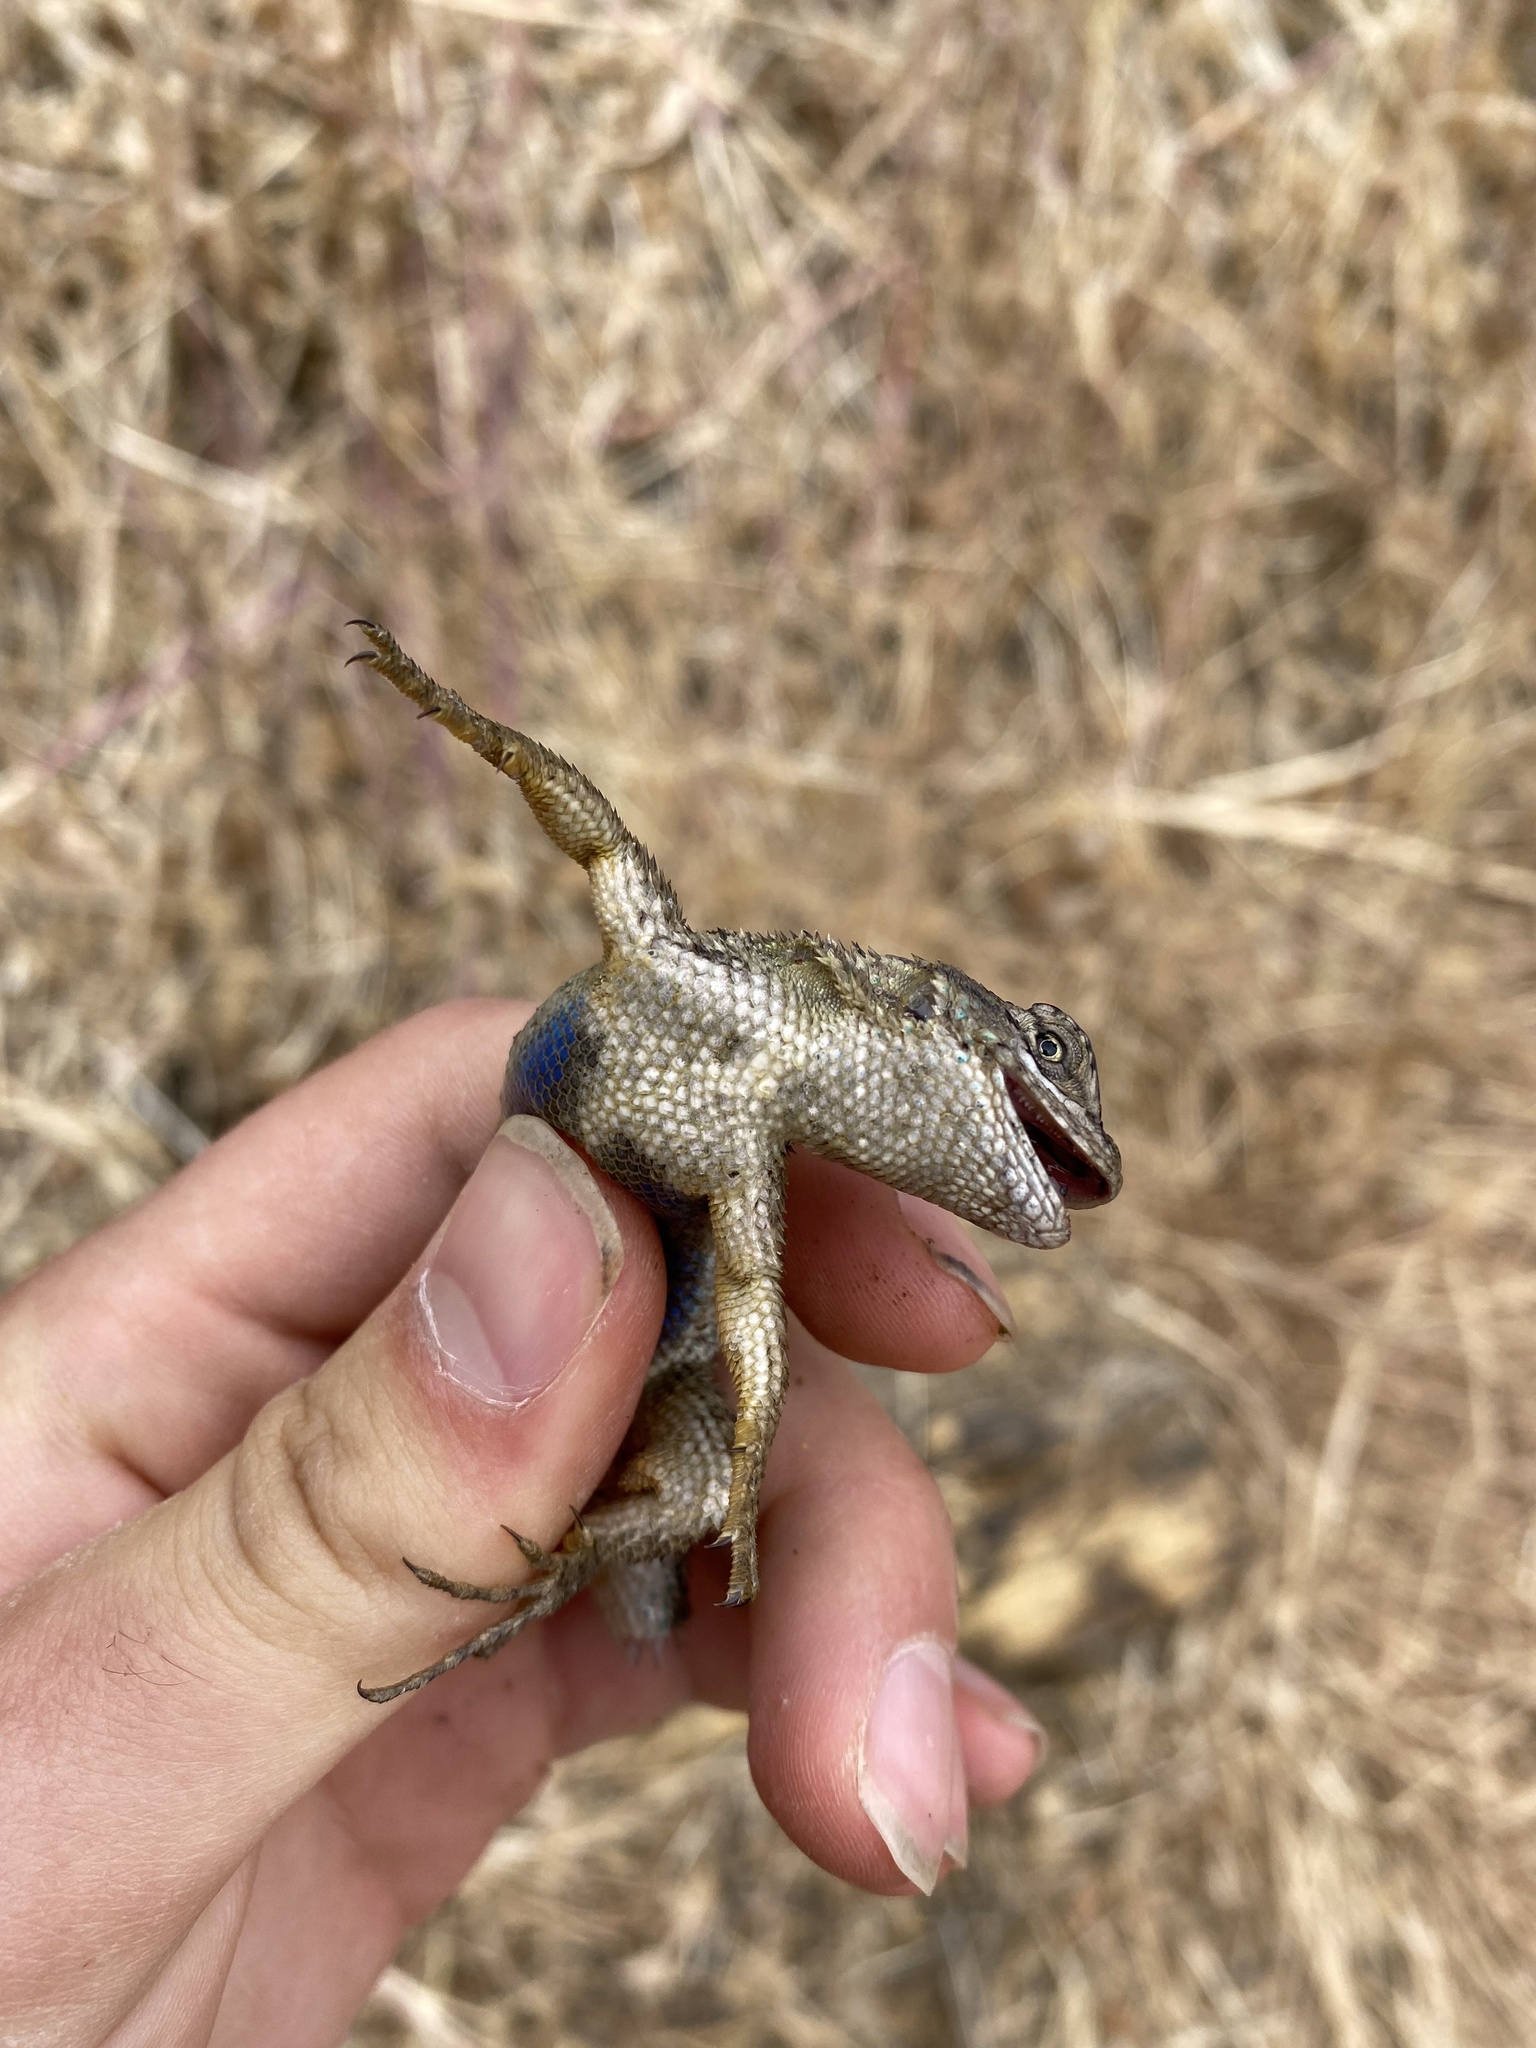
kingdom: Animalia
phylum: Chordata
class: Squamata
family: Phrynosomatidae
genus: Sceloporus
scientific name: Sceloporus occidentalis
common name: Western fence lizard
